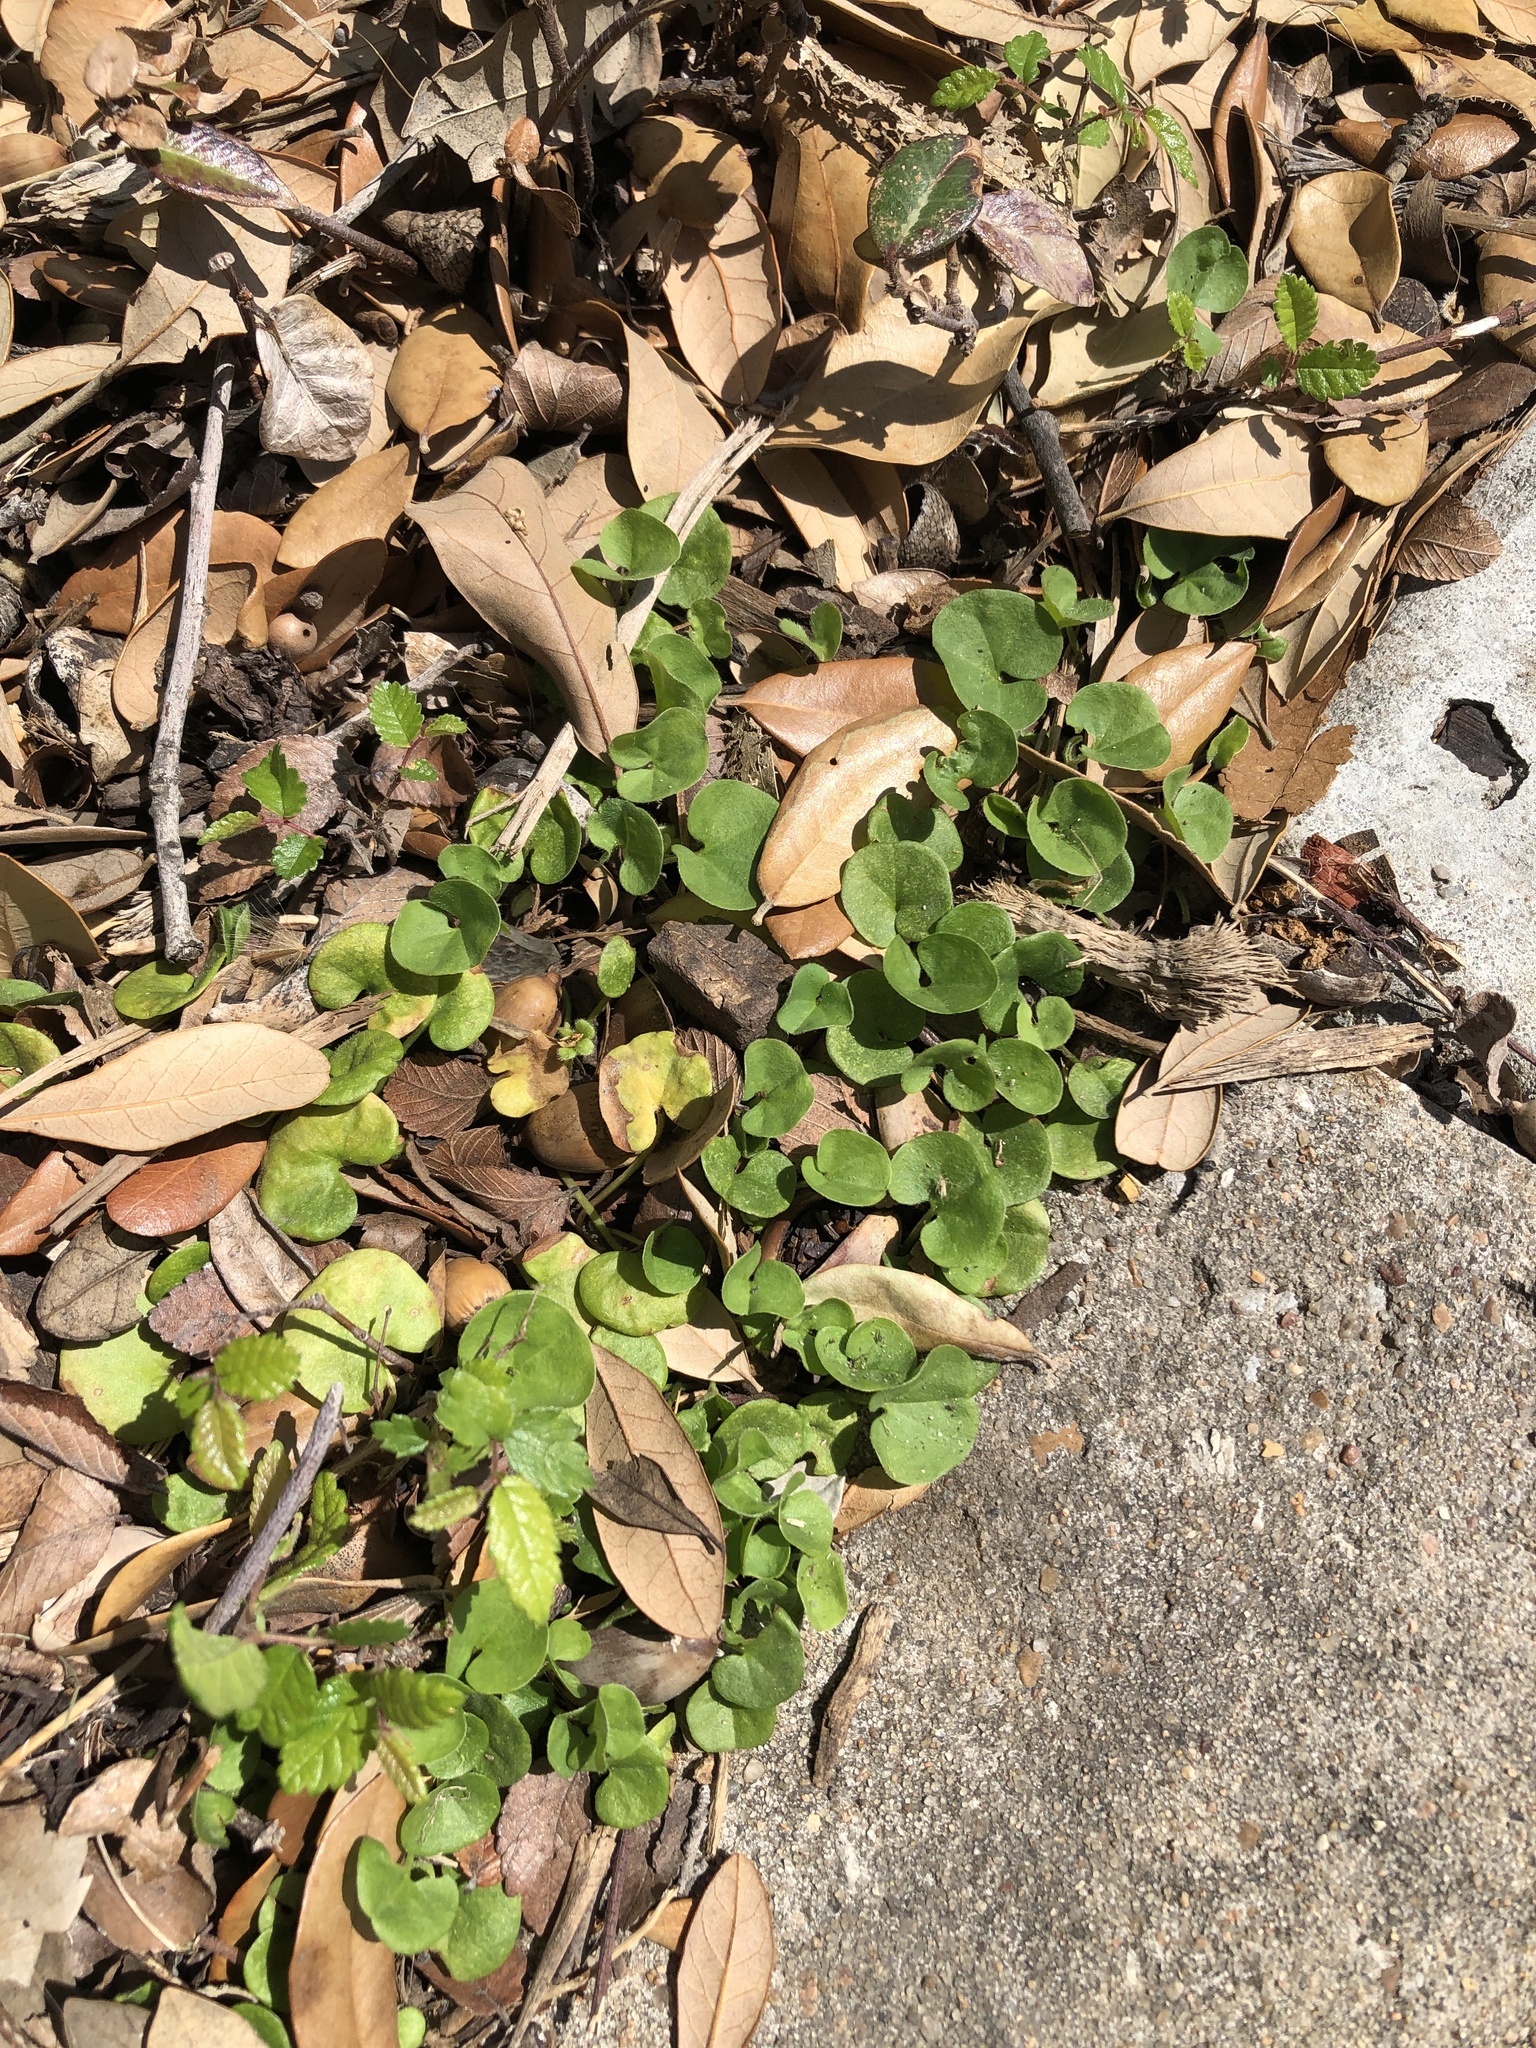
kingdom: Plantae
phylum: Tracheophyta
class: Magnoliopsida
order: Solanales
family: Convolvulaceae
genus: Dichondra
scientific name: Dichondra carolinensis
